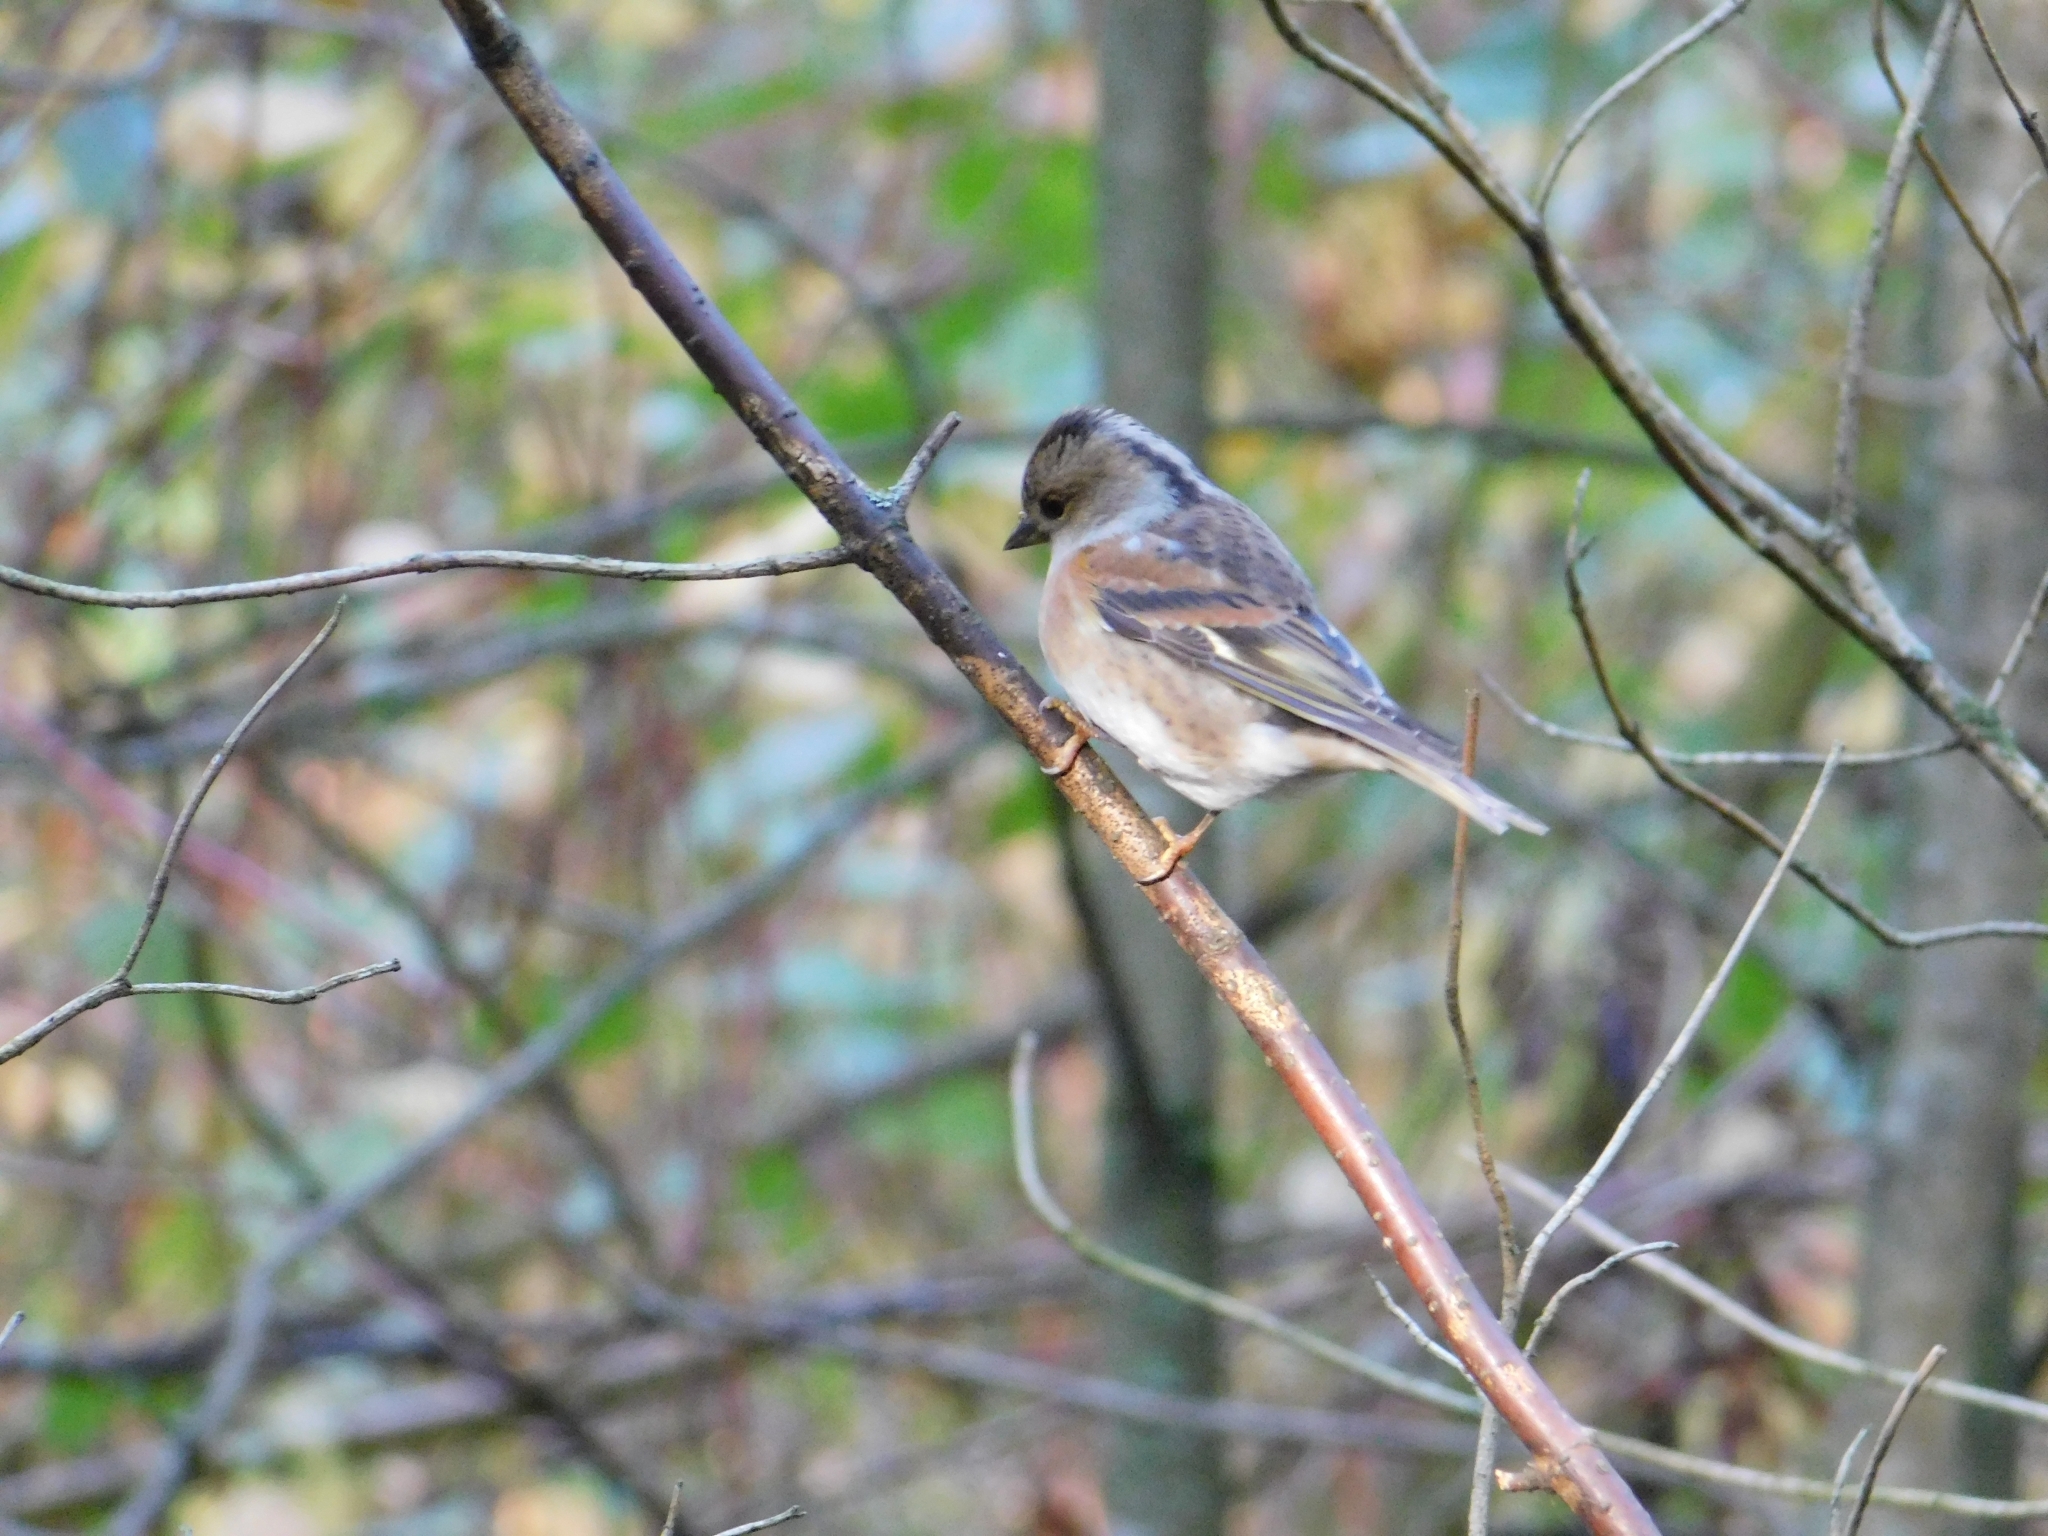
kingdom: Animalia
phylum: Chordata
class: Aves
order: Passeriformes
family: Fringillidae
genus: Fringilla
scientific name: Fringilla montifringilla
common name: Brambling
